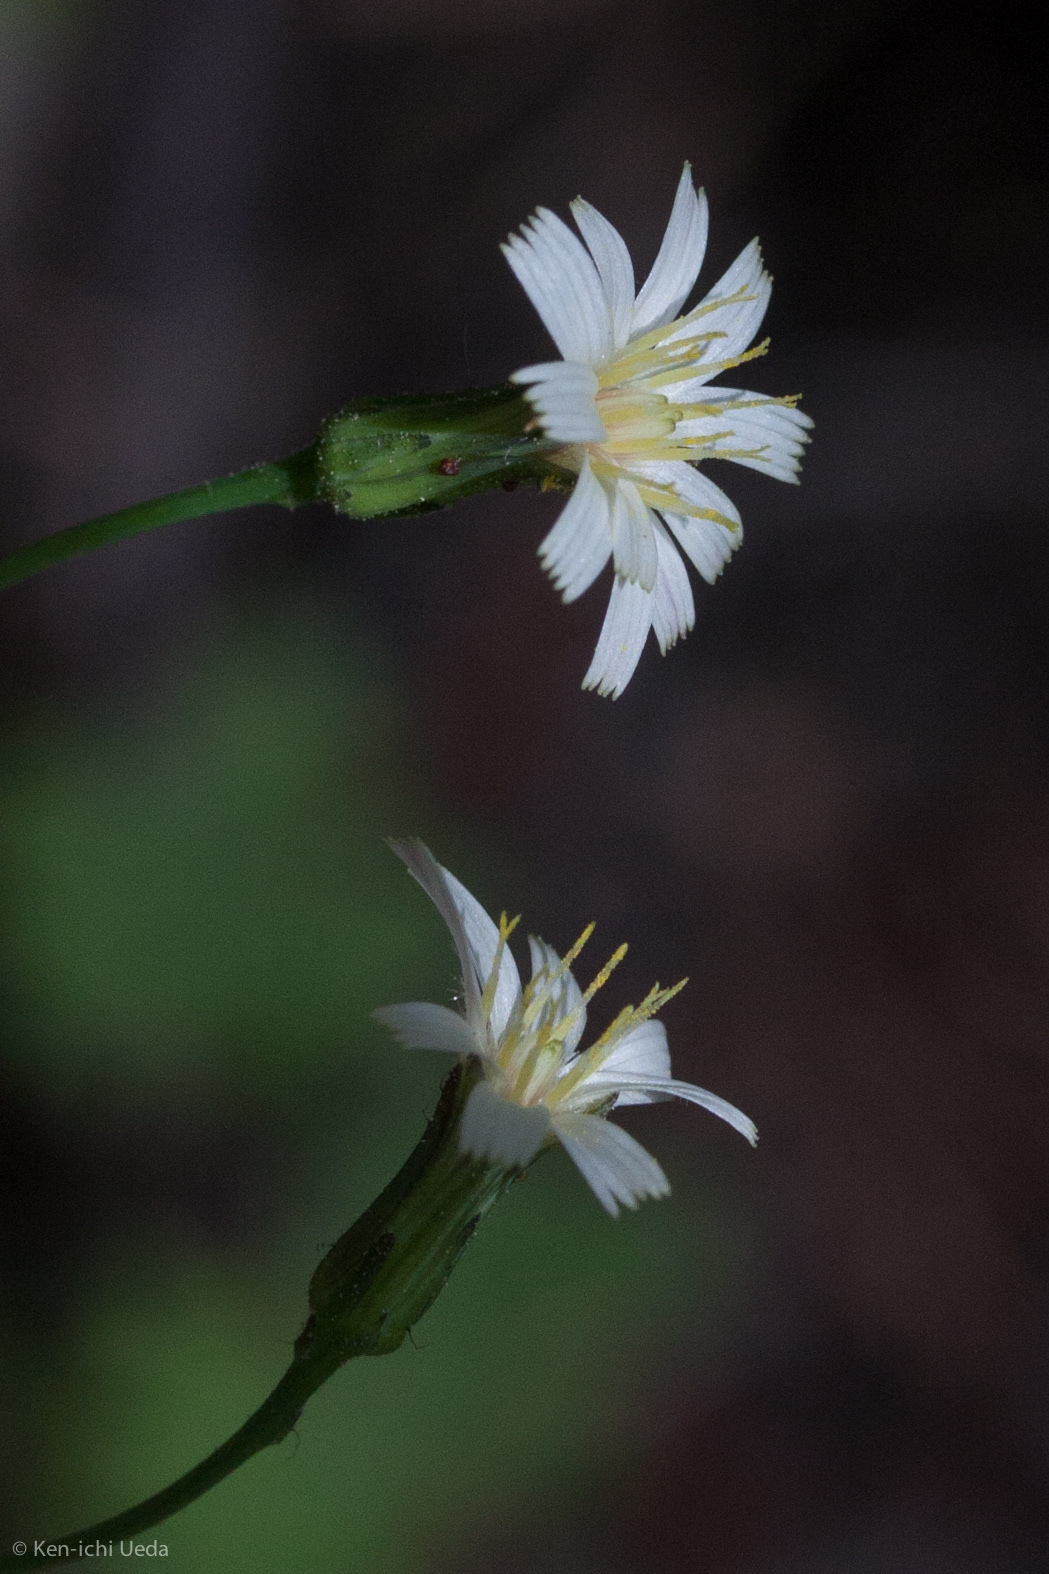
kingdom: Plantae
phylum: Tracheophyta
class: Magnoliopsida
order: Asterales
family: Asteraceae
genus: Hieracium
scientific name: Hieracium albiflorum
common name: White hawkweed
